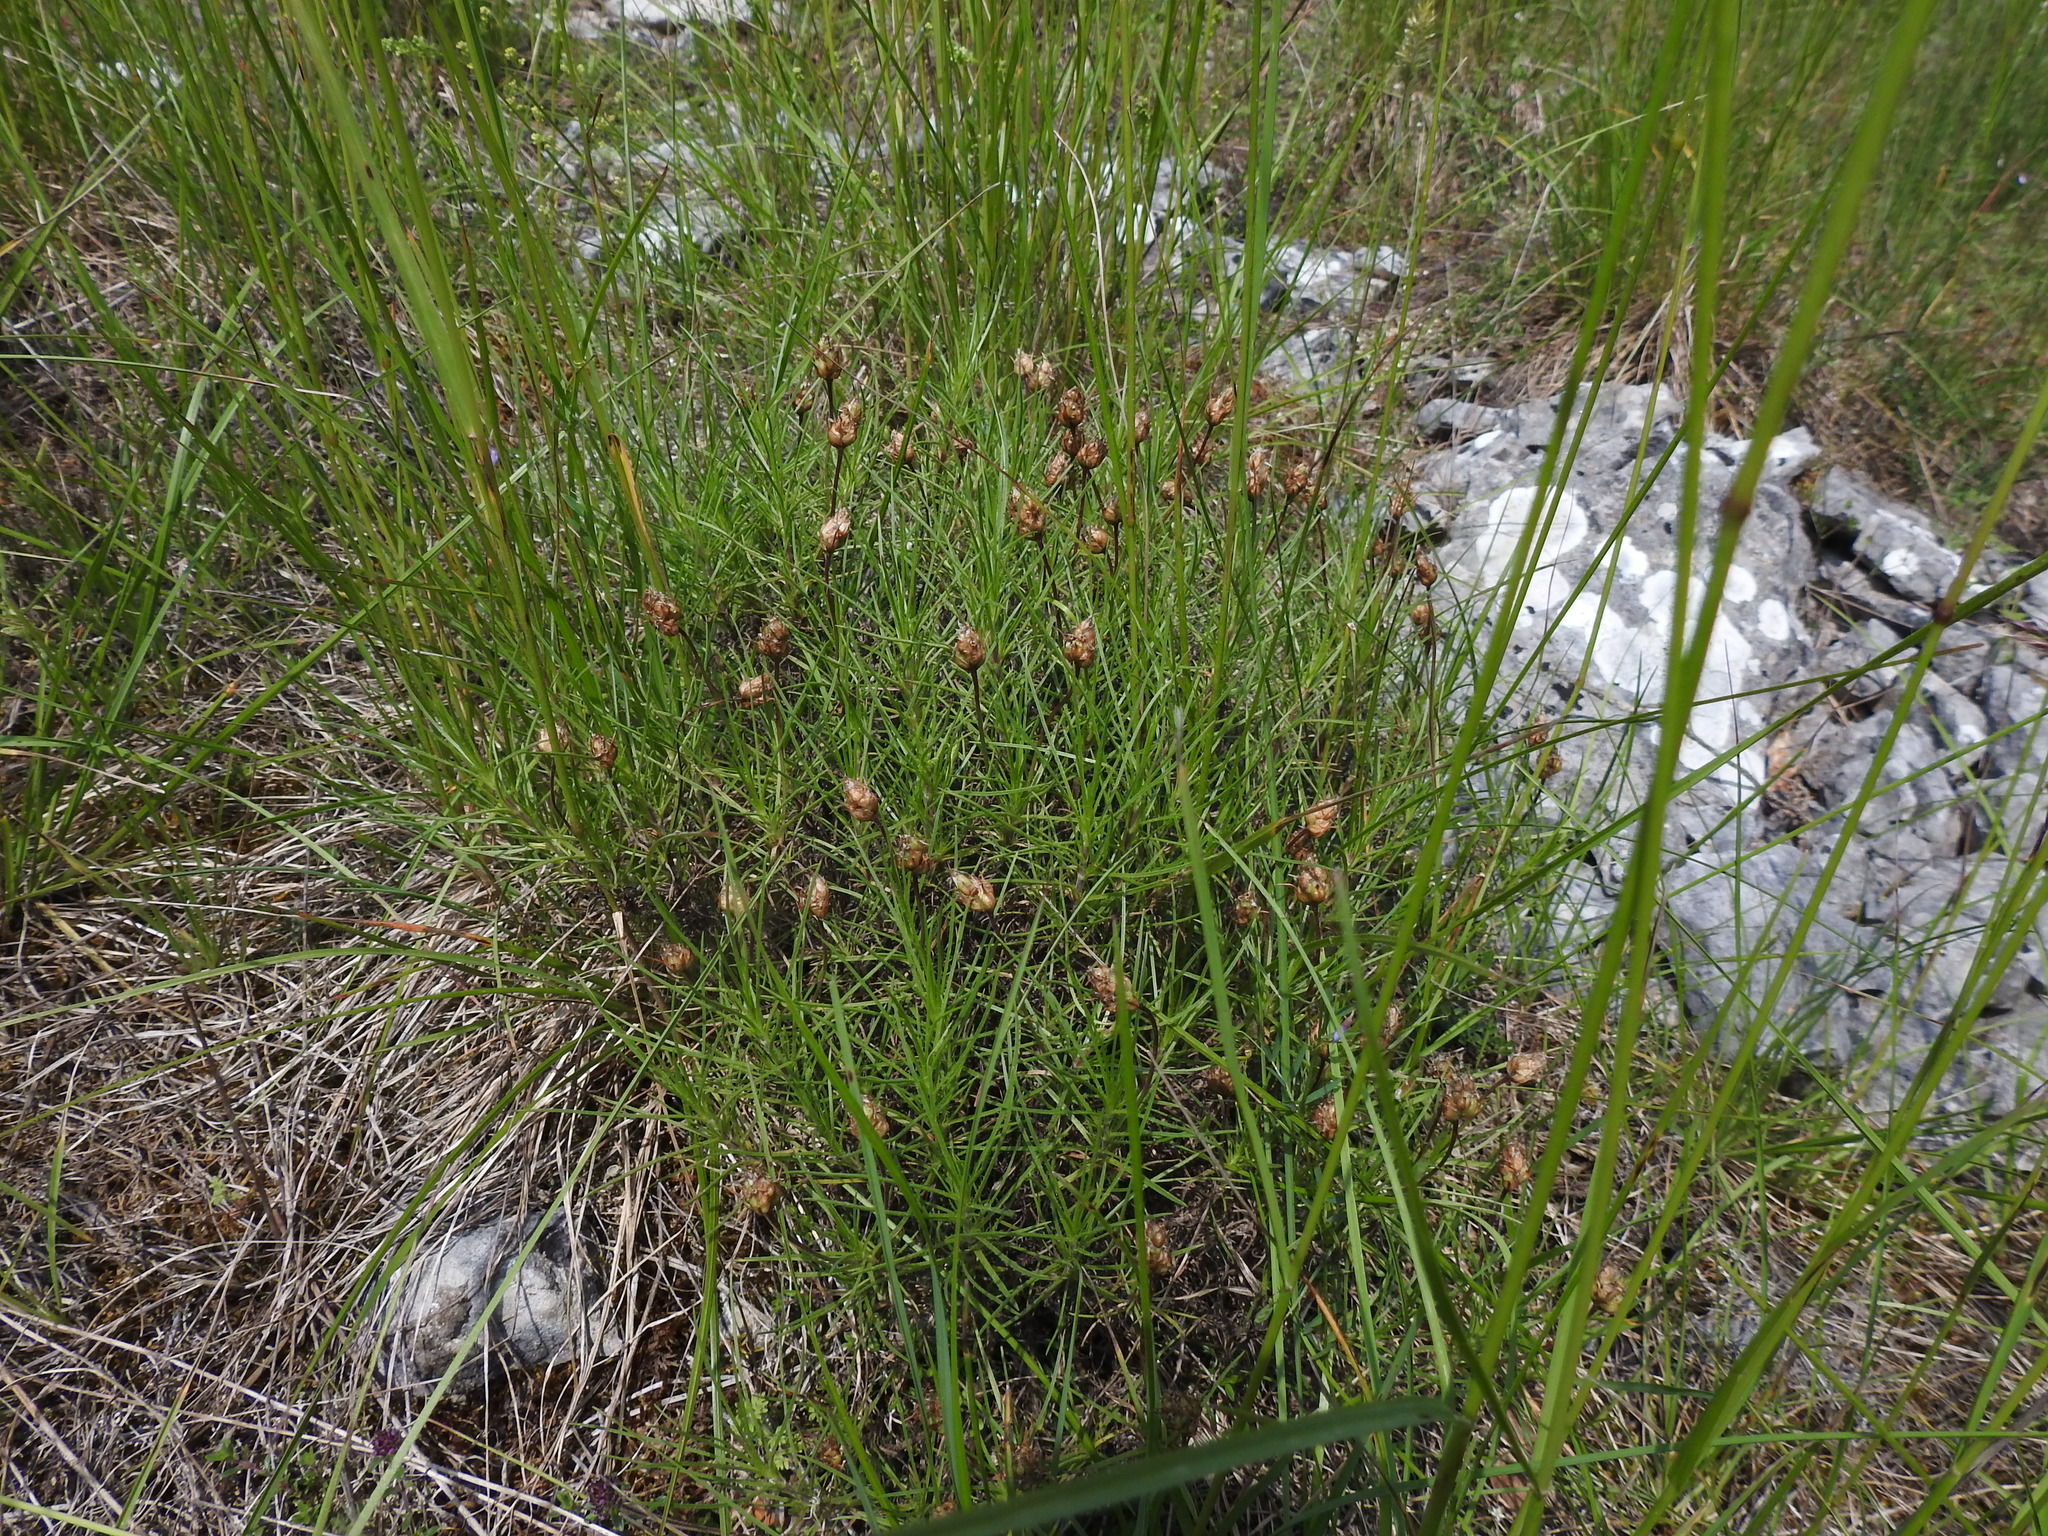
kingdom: Plantae
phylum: Tracheophyta
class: Magnoliopsida
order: Lamiales
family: Plantaginaceae
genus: Plantago
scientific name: Plantago sempervirens
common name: Shrubby plantain
